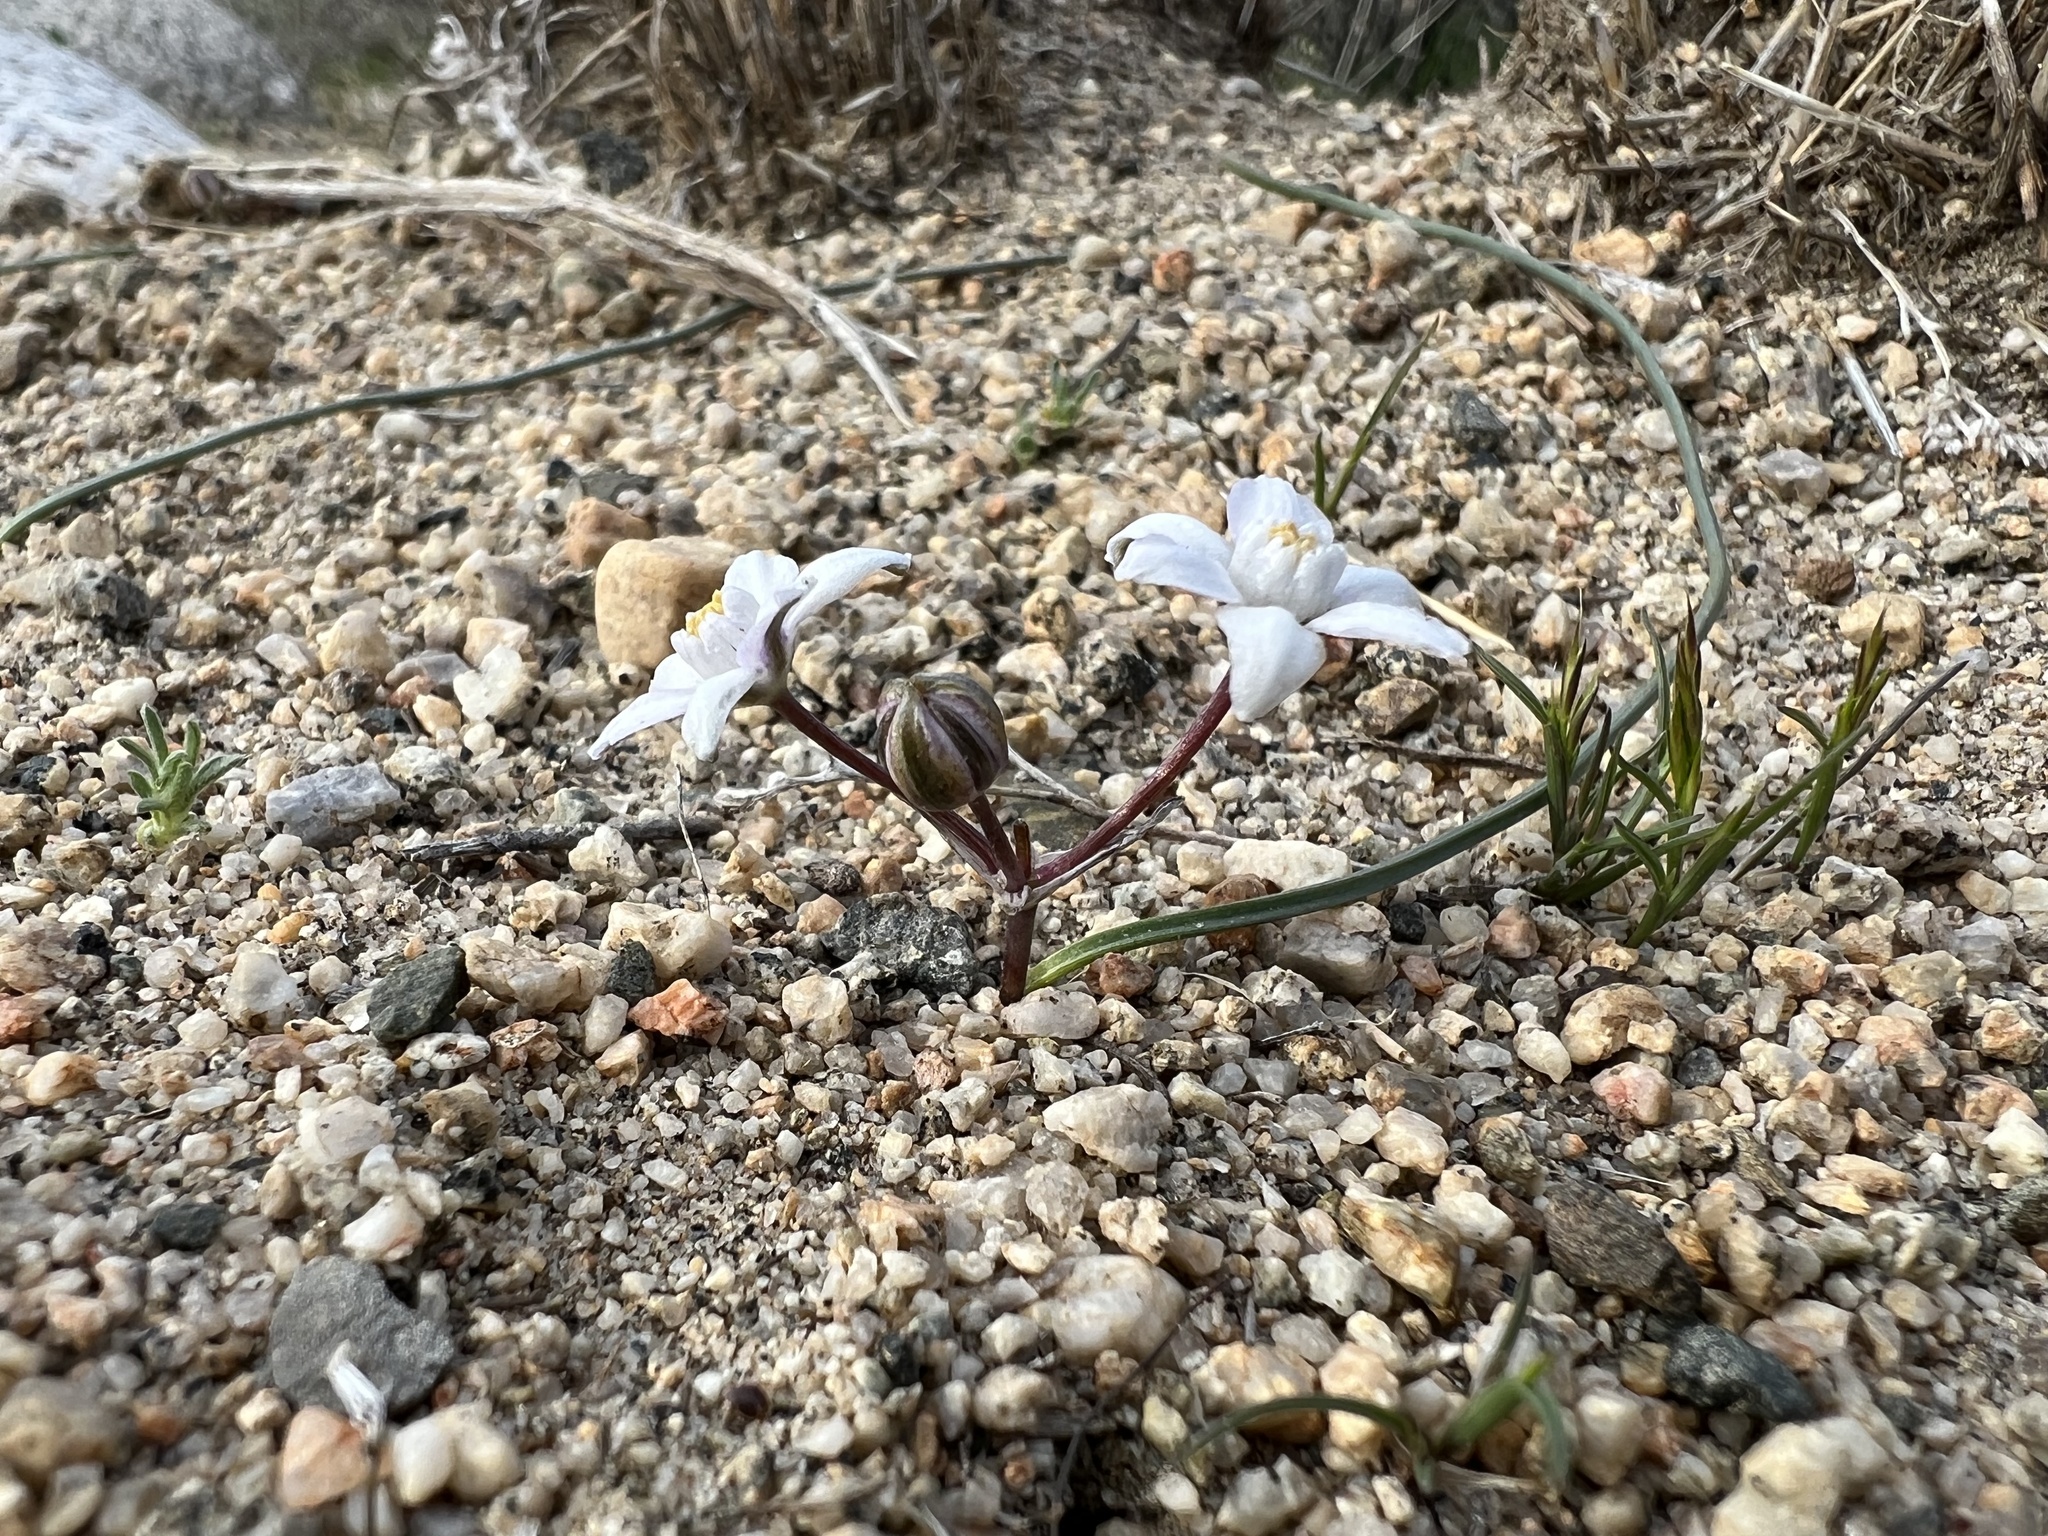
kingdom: Plantae
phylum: Tracheophyta
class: Liliopsida
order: Asparagales
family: Asparagaceae
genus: Muilla
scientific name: Muilla coronata
